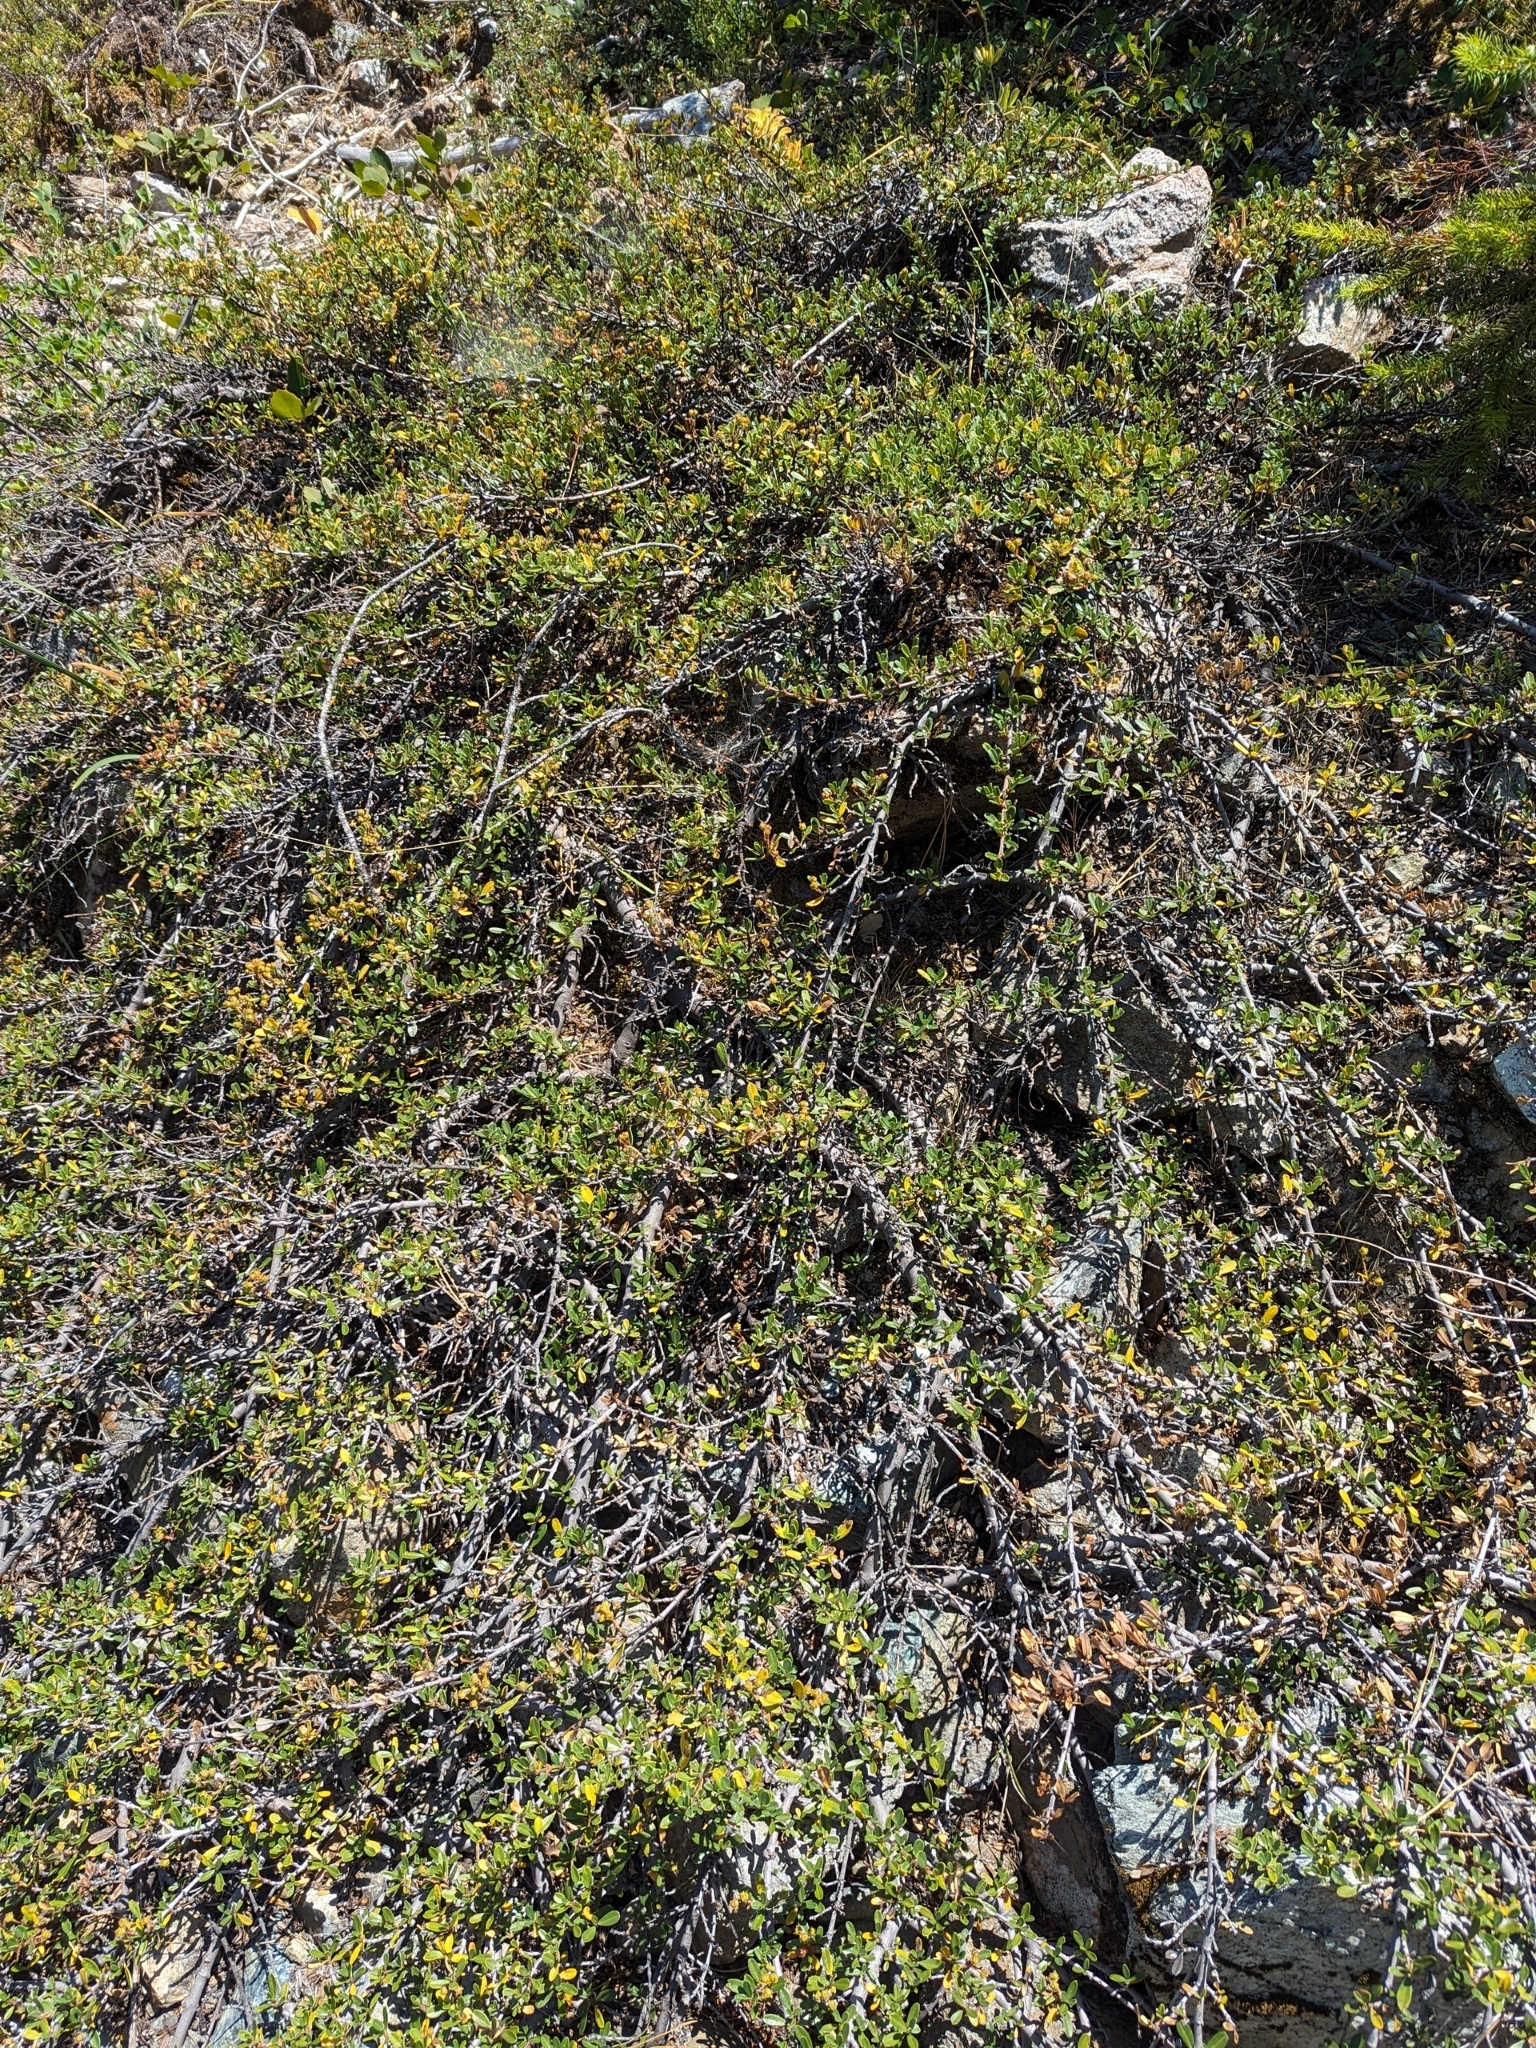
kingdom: Plantae
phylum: Tracheophyta
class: Magnoliopsida
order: Rosales
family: Rhamnaceae
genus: Ceanothus
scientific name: Ceanothus arcuatus
